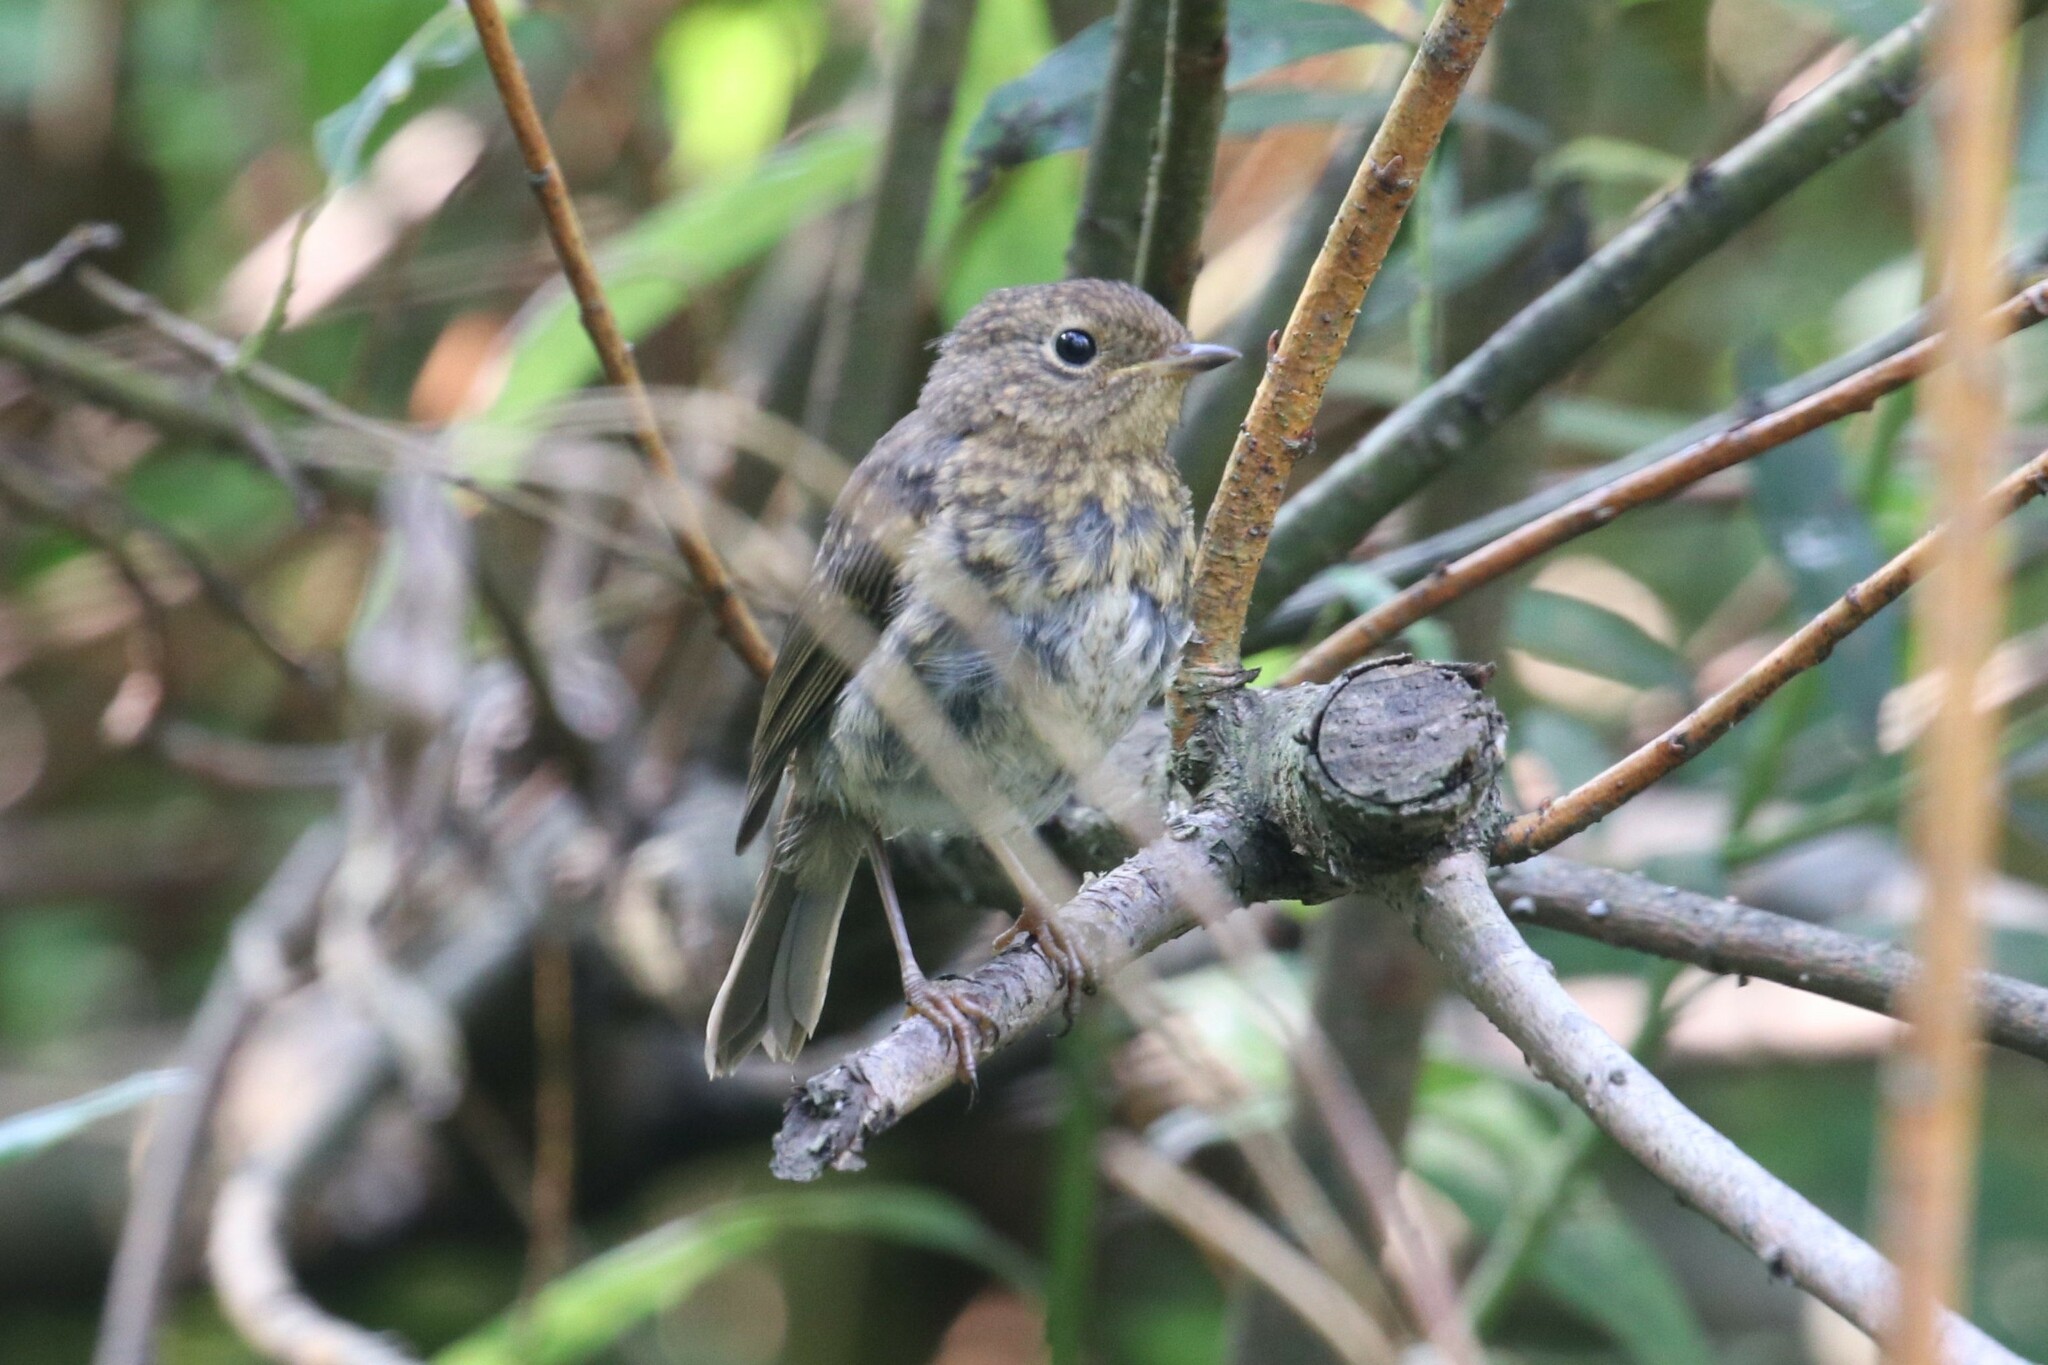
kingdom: Animalia
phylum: Chordata
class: Aves
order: Passeriformes
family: Muscicapidae
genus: Erithacus
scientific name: Erithacus rubecula
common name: European robin
